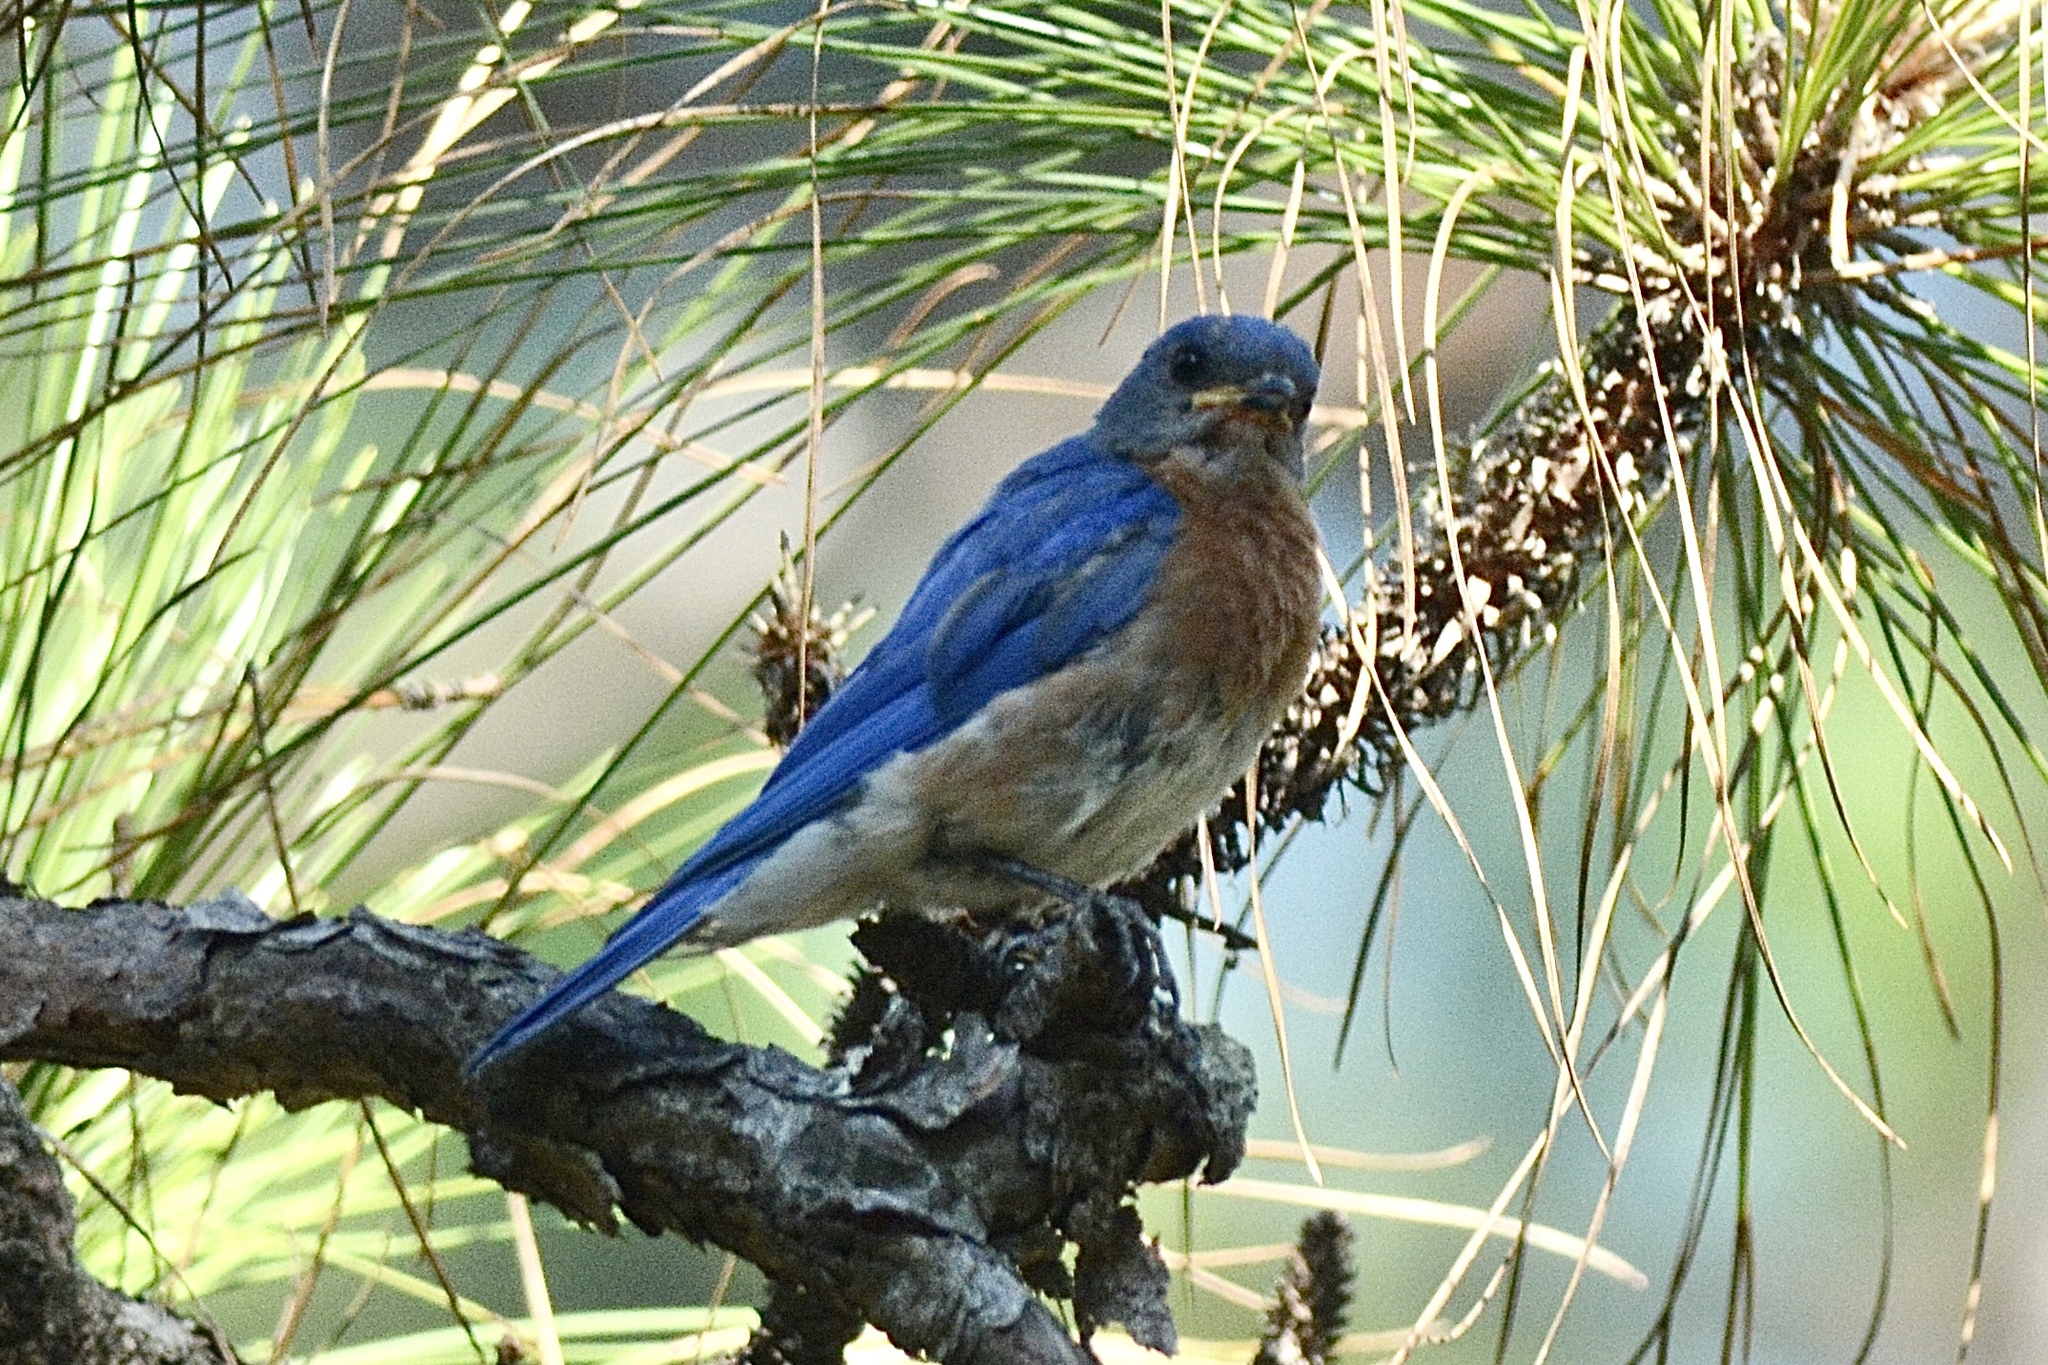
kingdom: Animalia
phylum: Chordata
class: Aves
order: Passeriformes
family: Turdidae
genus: Sialia
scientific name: Sialia sialis
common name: Eastern bluebird
